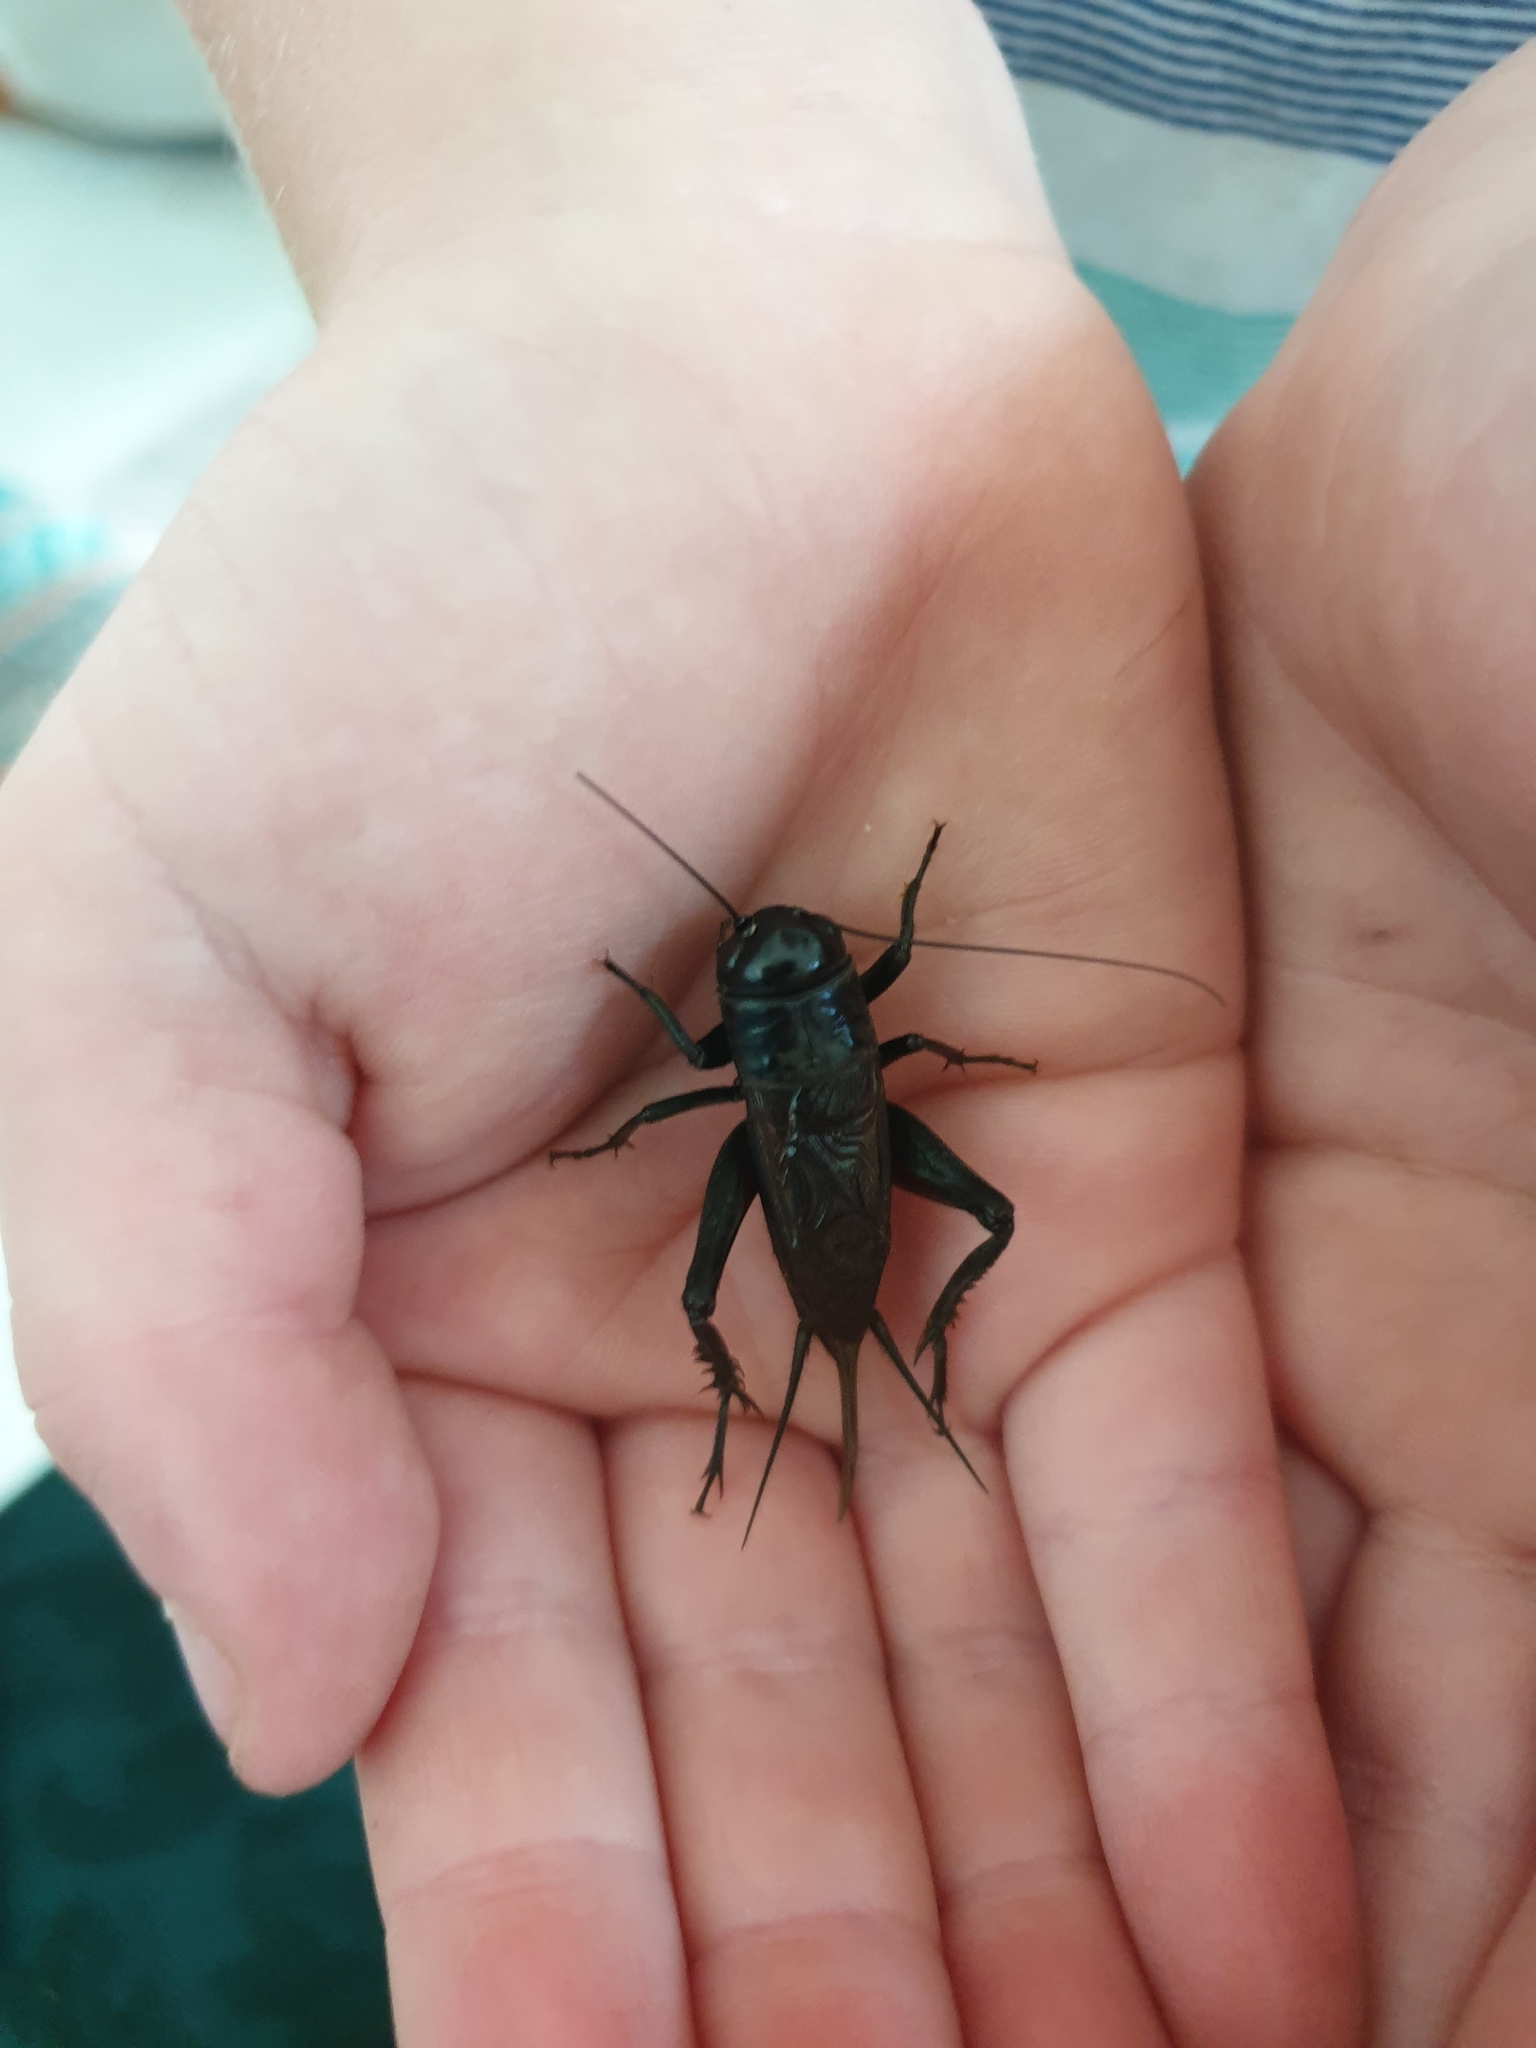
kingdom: Animalia
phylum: Arthropoda
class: Insecta
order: Orthoptera
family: Gryllidae
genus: Teleogryllus
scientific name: Teleogryllus commodus
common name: Black field cricket
